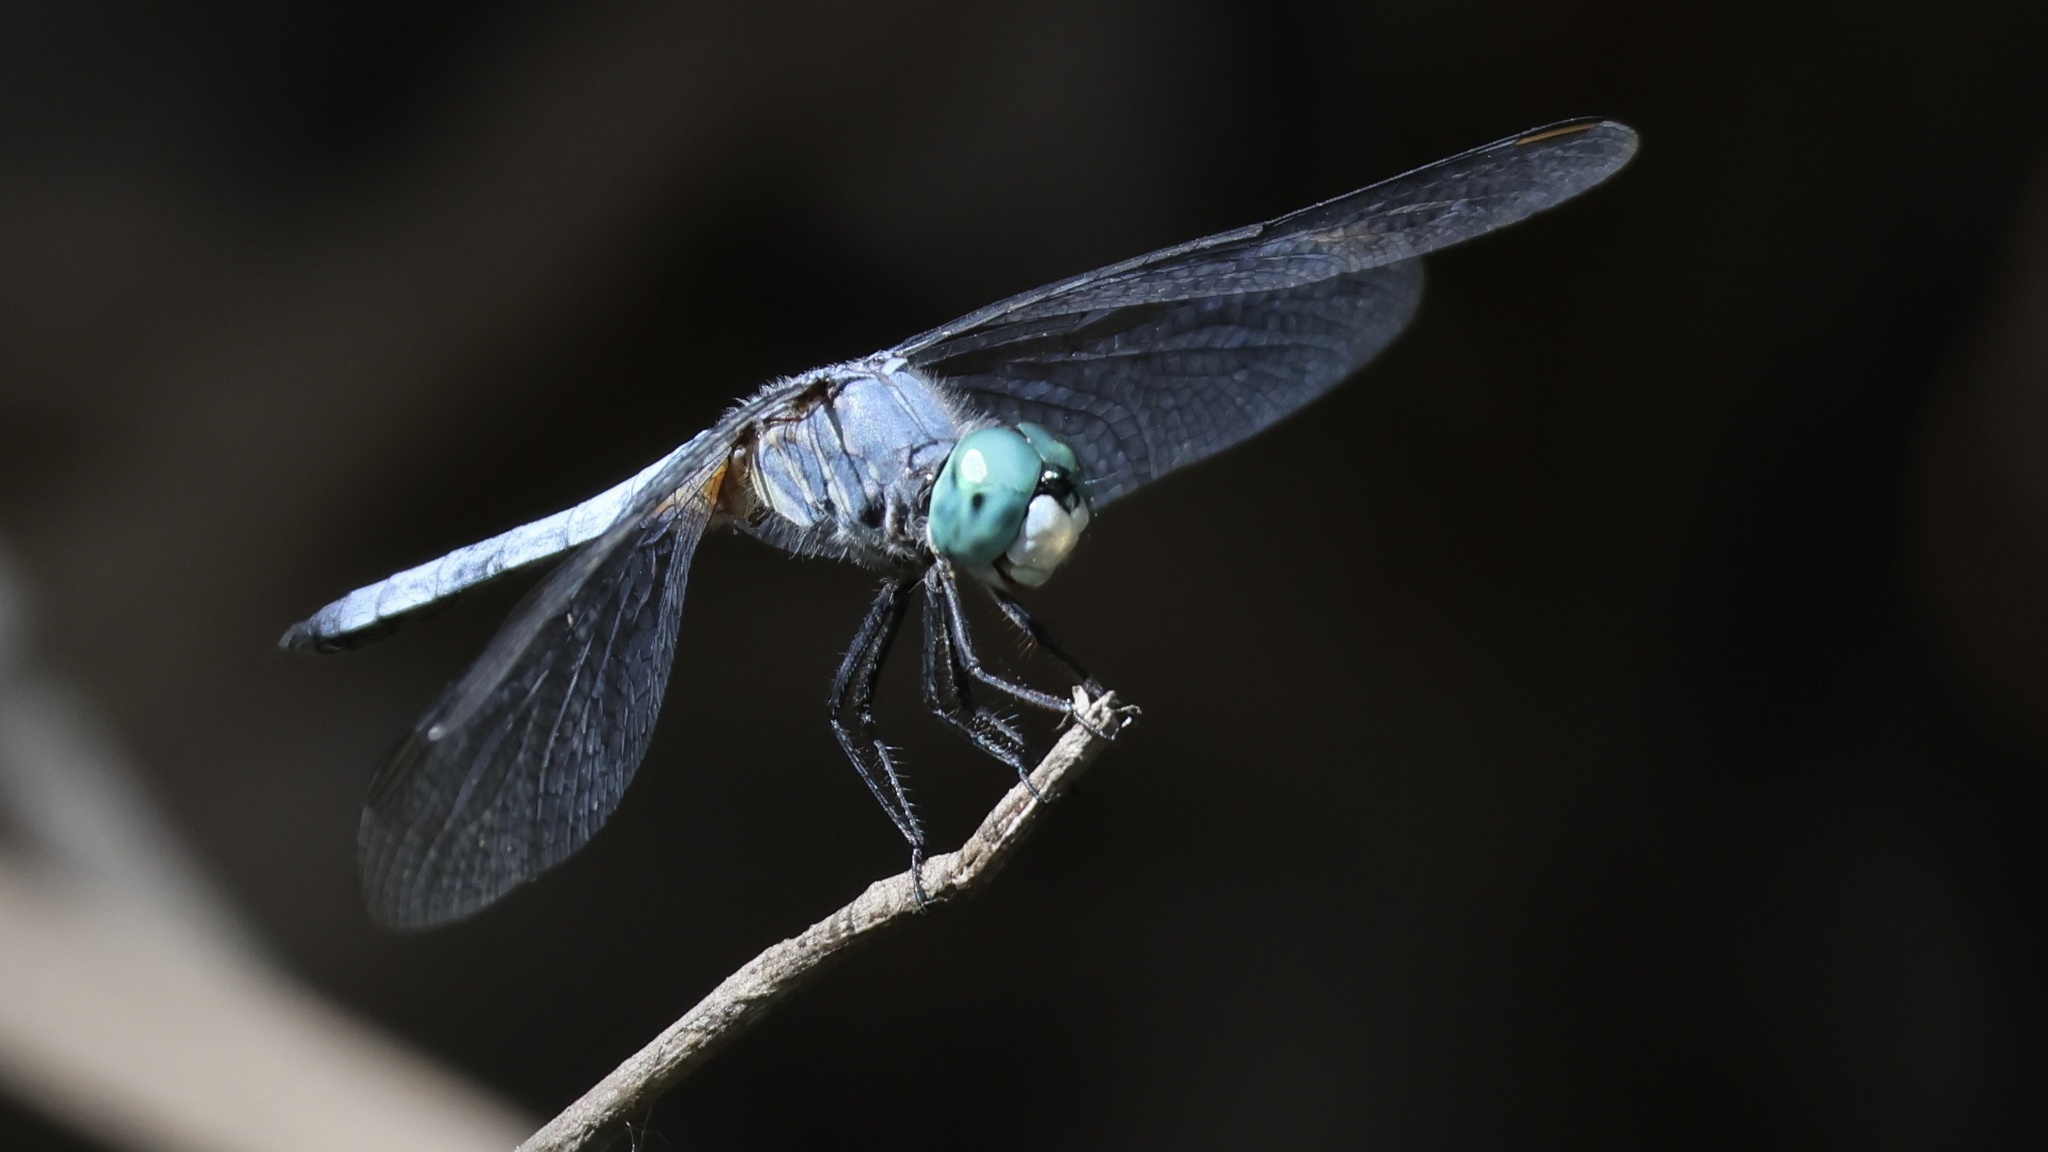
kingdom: Animalia
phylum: Arthropoda
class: Insecta
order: Odonata
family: Libellulidae
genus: Pachydiplax
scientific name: Pachydiplax longipennis
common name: Blue dasher
